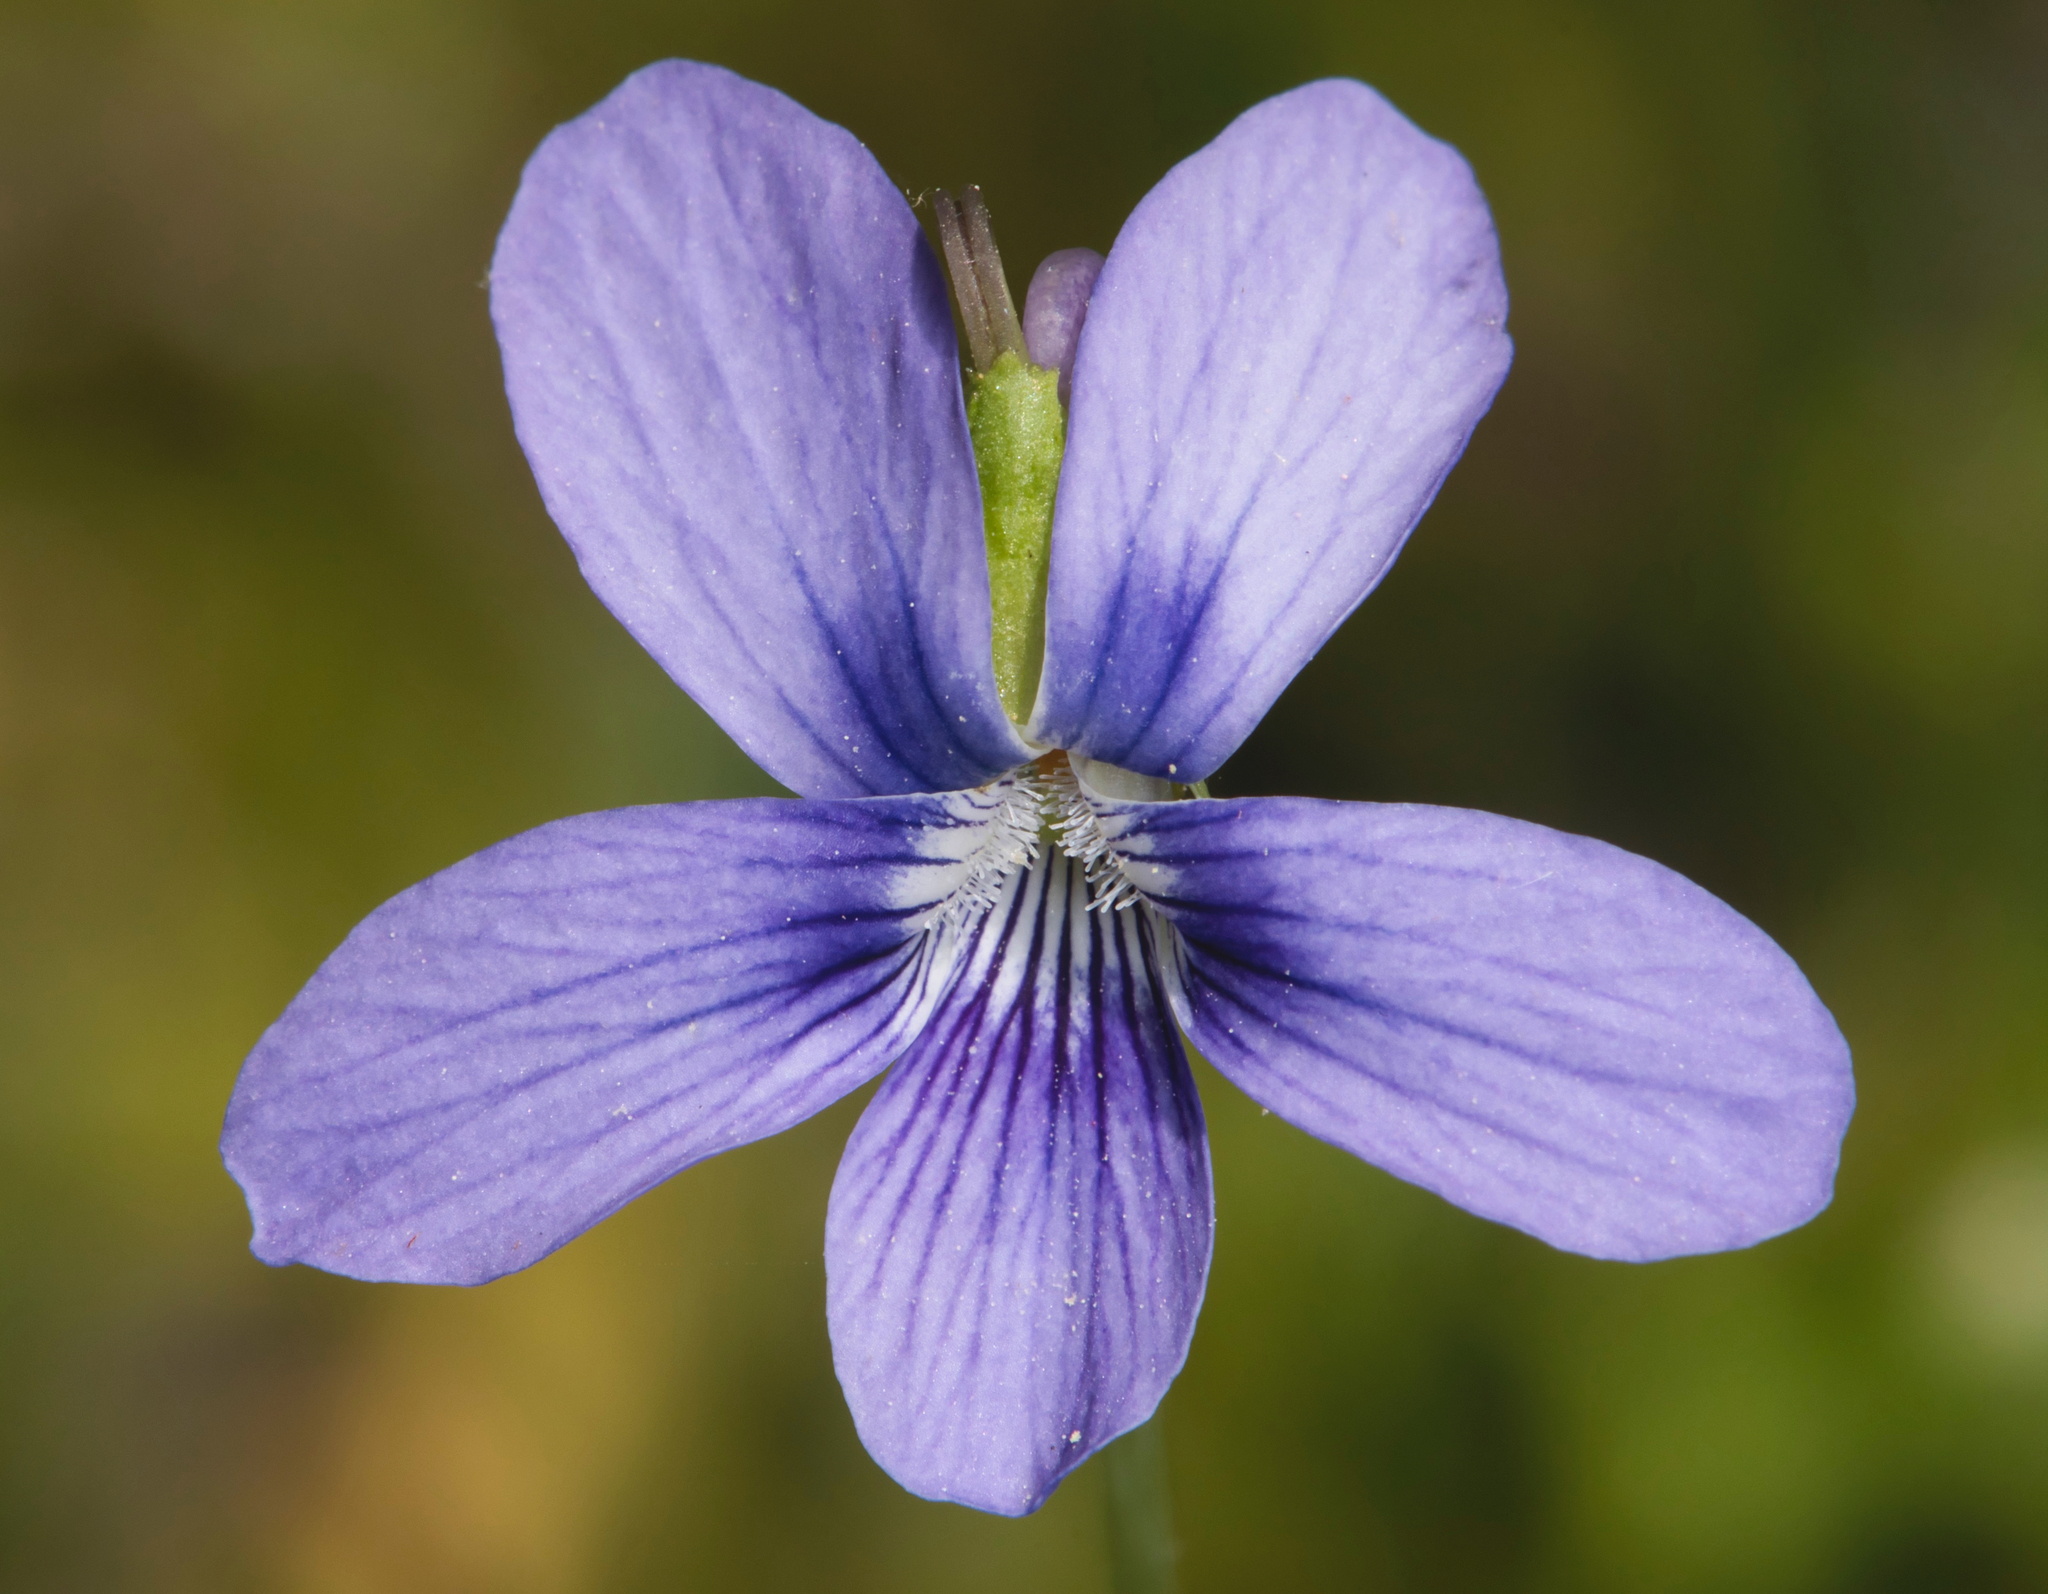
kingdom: Plantae
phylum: Tracheophyta
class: Magnoliopsida
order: Malpighiales
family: Violaceae
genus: Viola
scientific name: Viola cucullata
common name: Marsh blue violet
